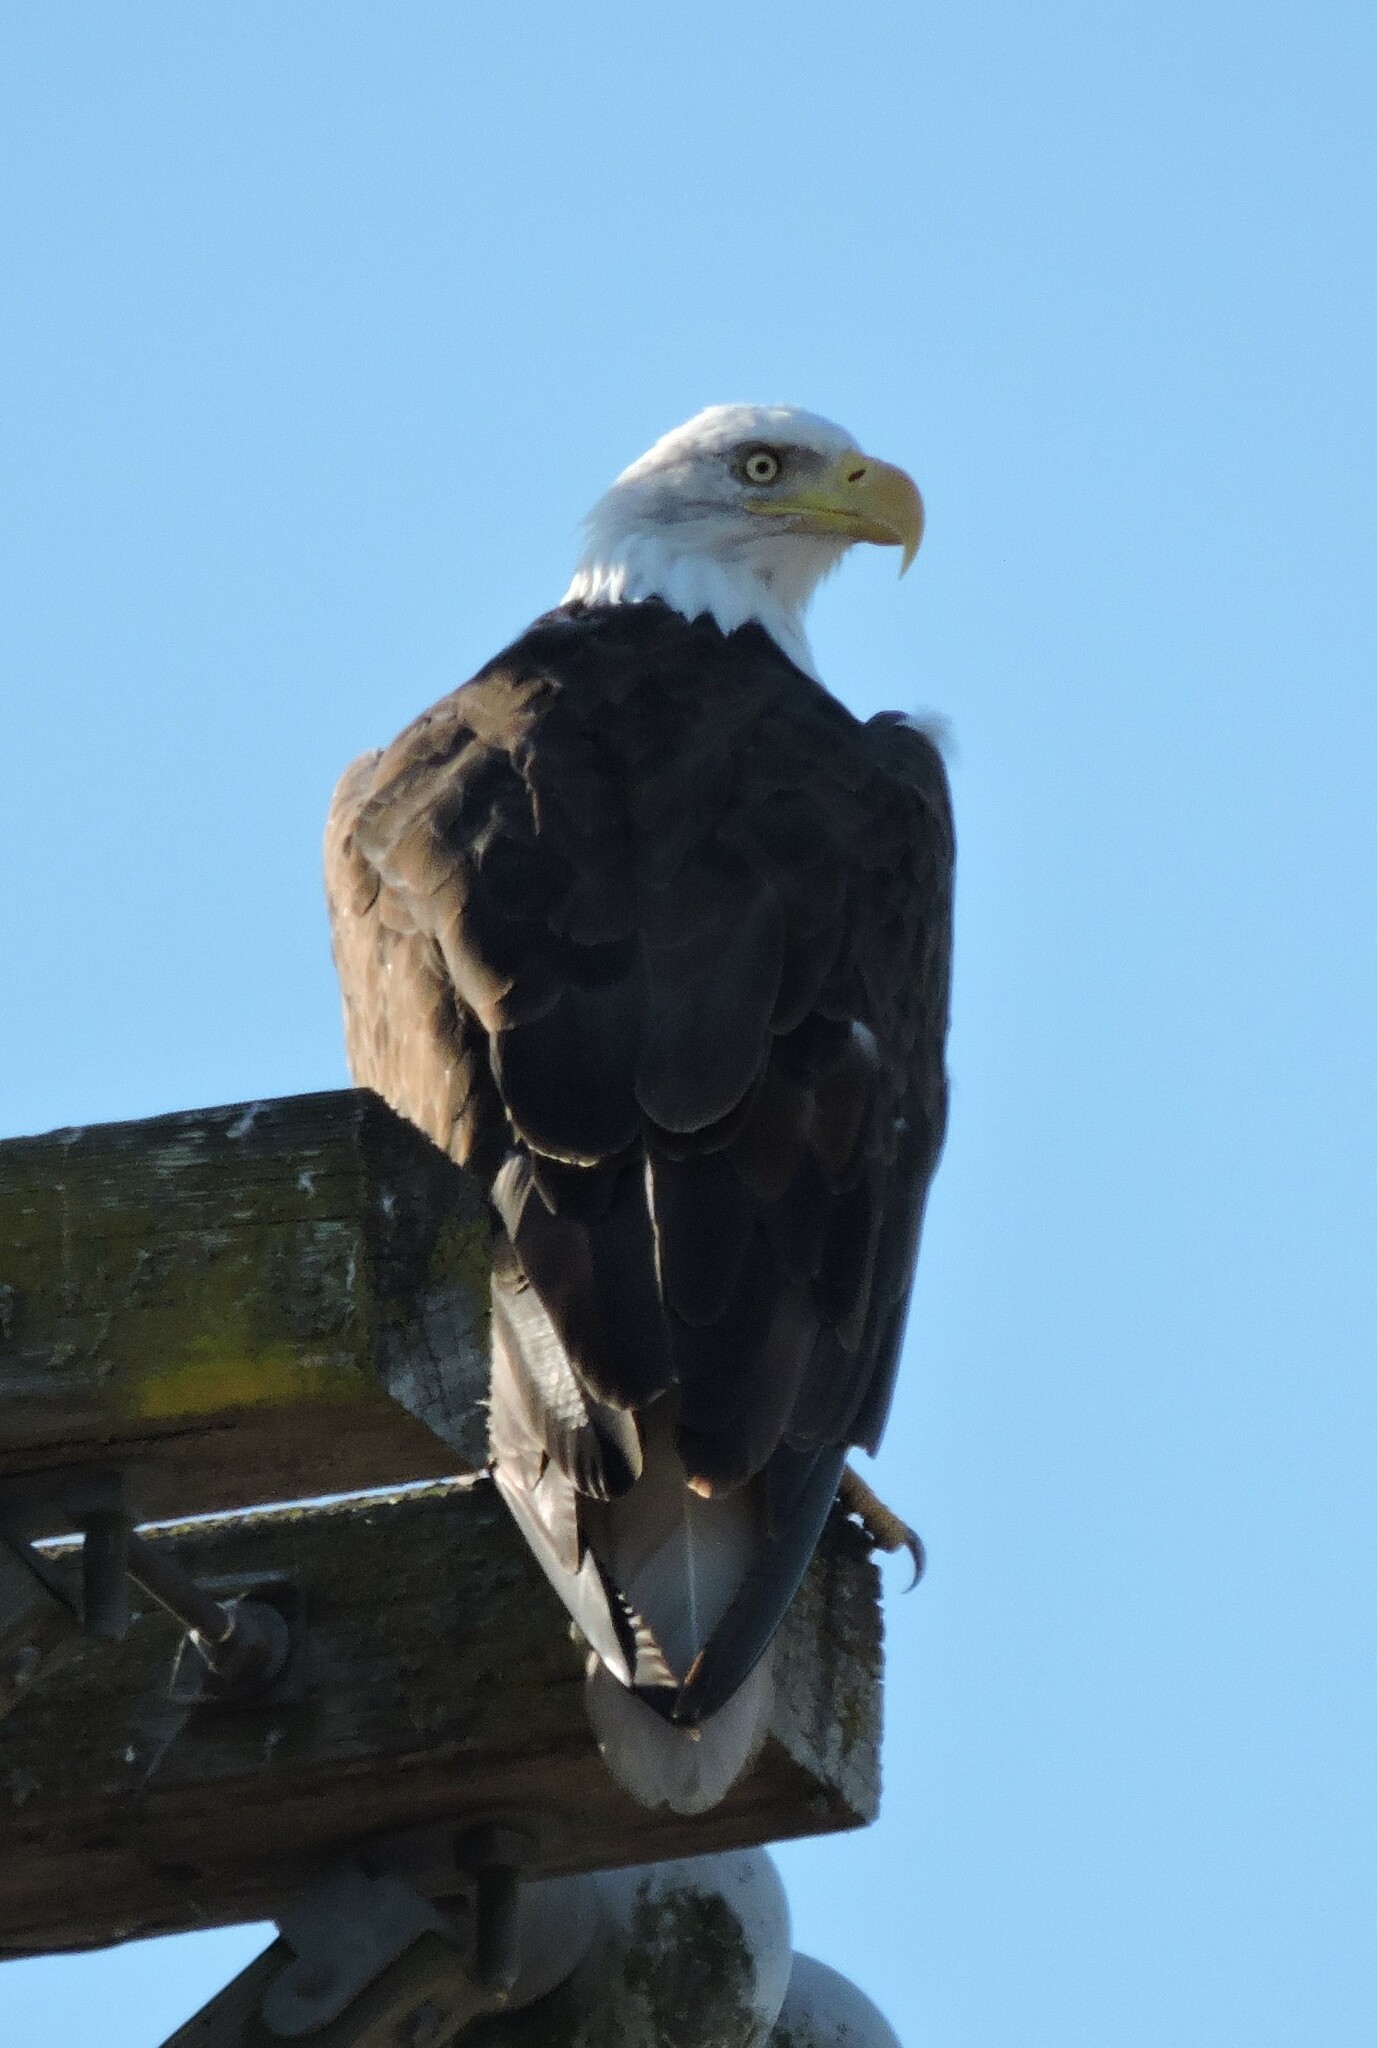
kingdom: Animalia
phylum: Chordata
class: Aves
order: Accipitriformes
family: Accipitridae
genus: Haliaeetus
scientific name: Haliaeetus leucocephalus
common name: Bald eagle
